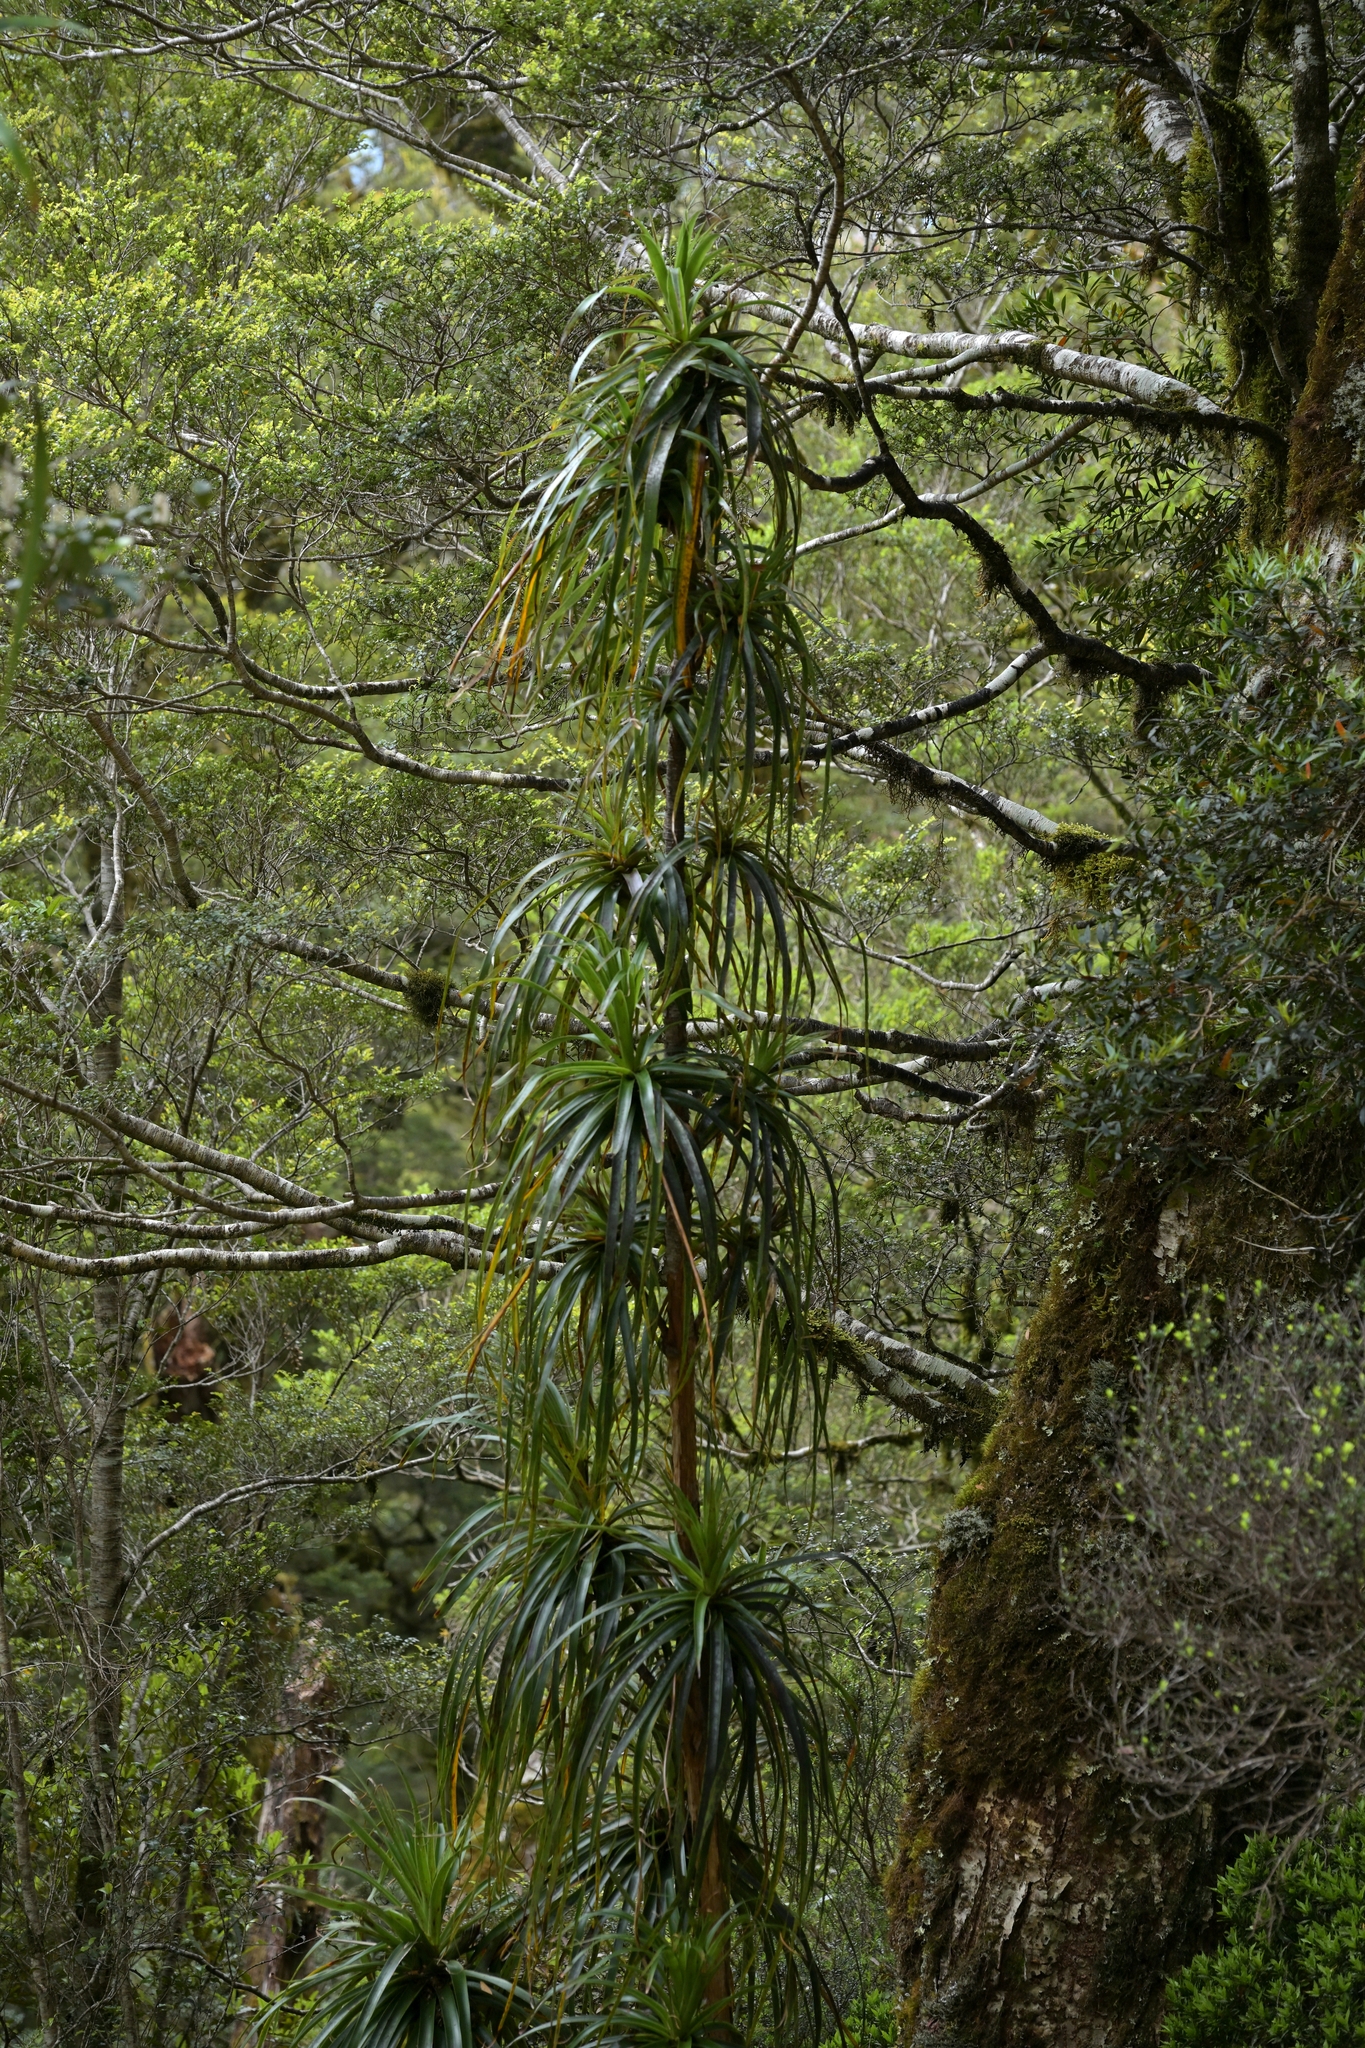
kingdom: Plantae
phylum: Tracheophyta
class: Magnoliopsida
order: Ericales
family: Ericaceae
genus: Dracophyllum
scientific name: Dracophyllum elegantissimum
